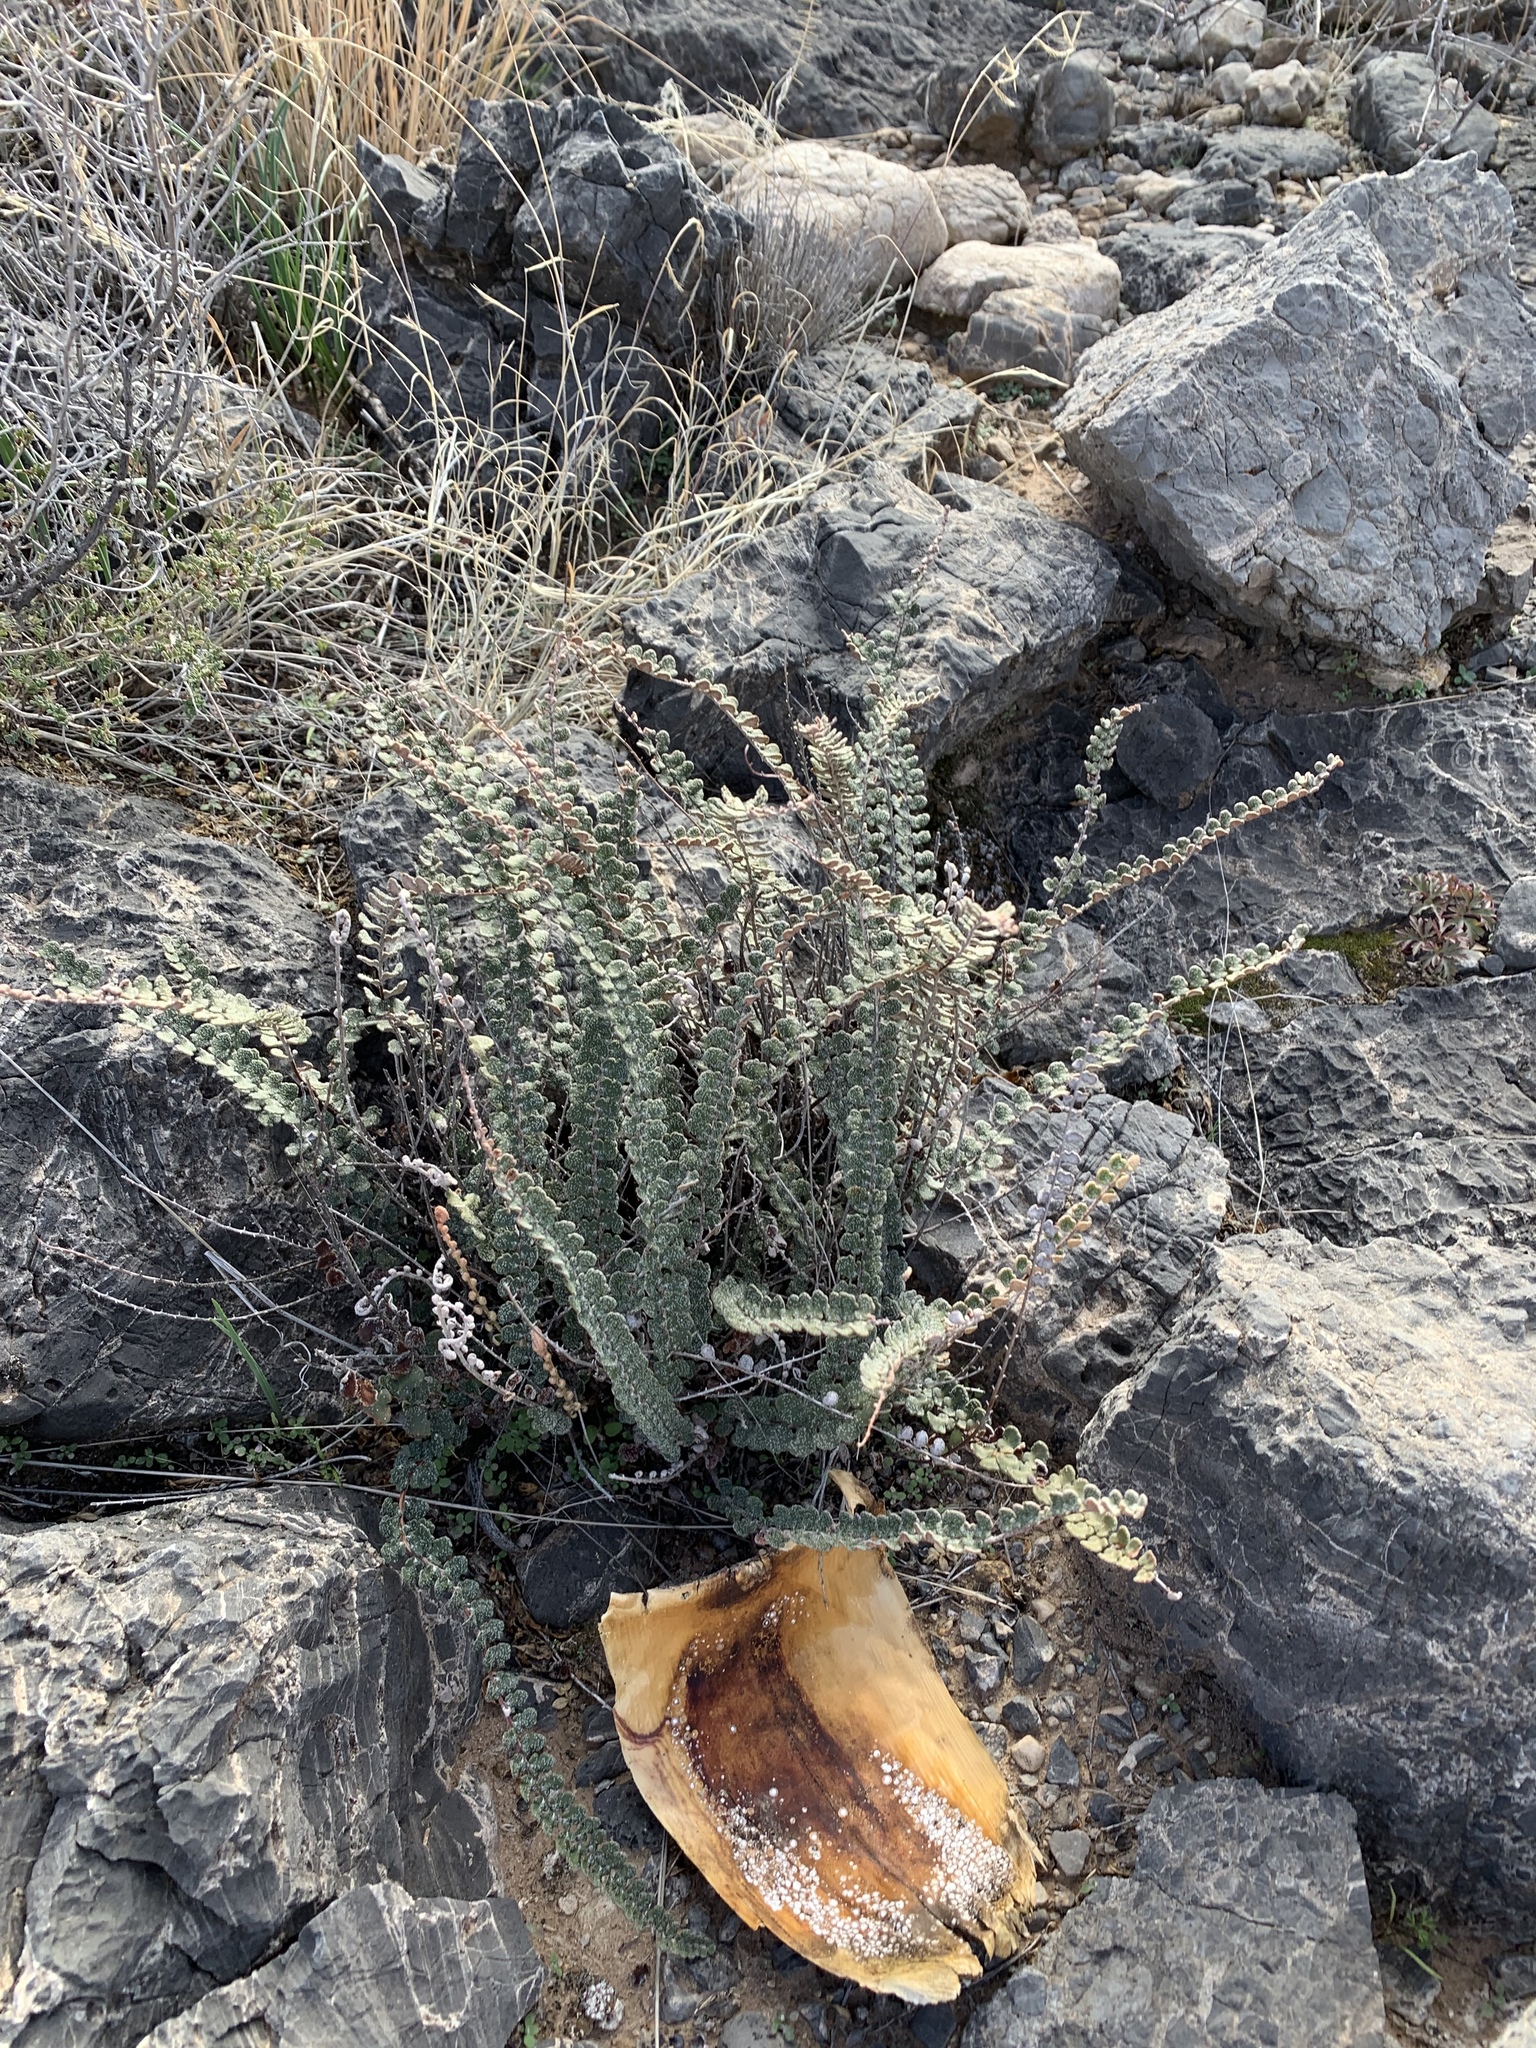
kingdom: Plantae
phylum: Tracheophyta
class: Polypodiopsida
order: Polypodiales
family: Pteridaceae
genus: Astrolepis
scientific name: Astrolepis cochisensis
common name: Scaly cloak fern
